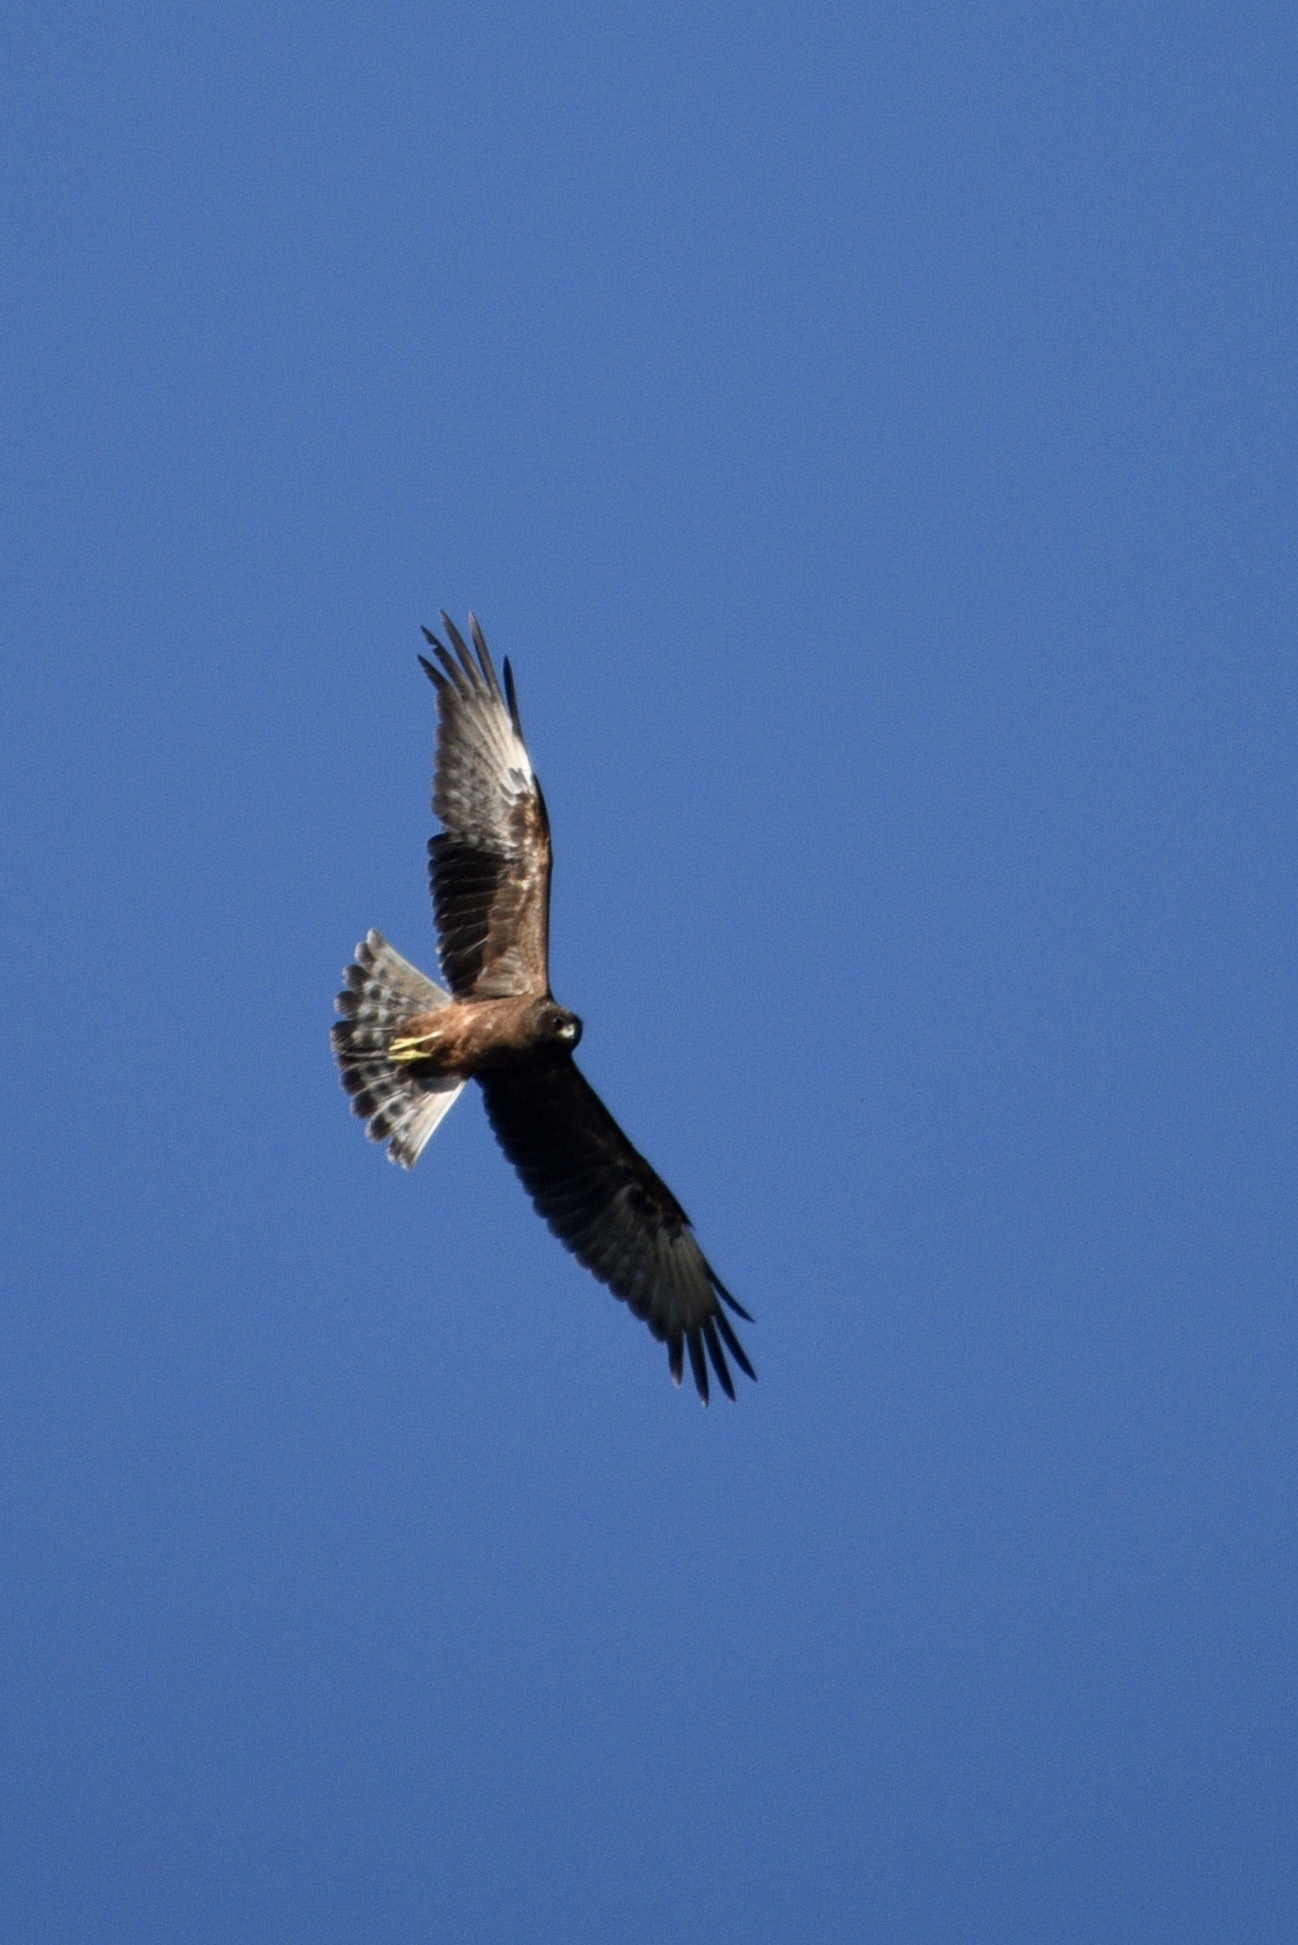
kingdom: Animalia
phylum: Chordata
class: Aves
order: Accipitriformes
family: Accipitridae
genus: Circus
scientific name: Circus approximans
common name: Swamp harrier
